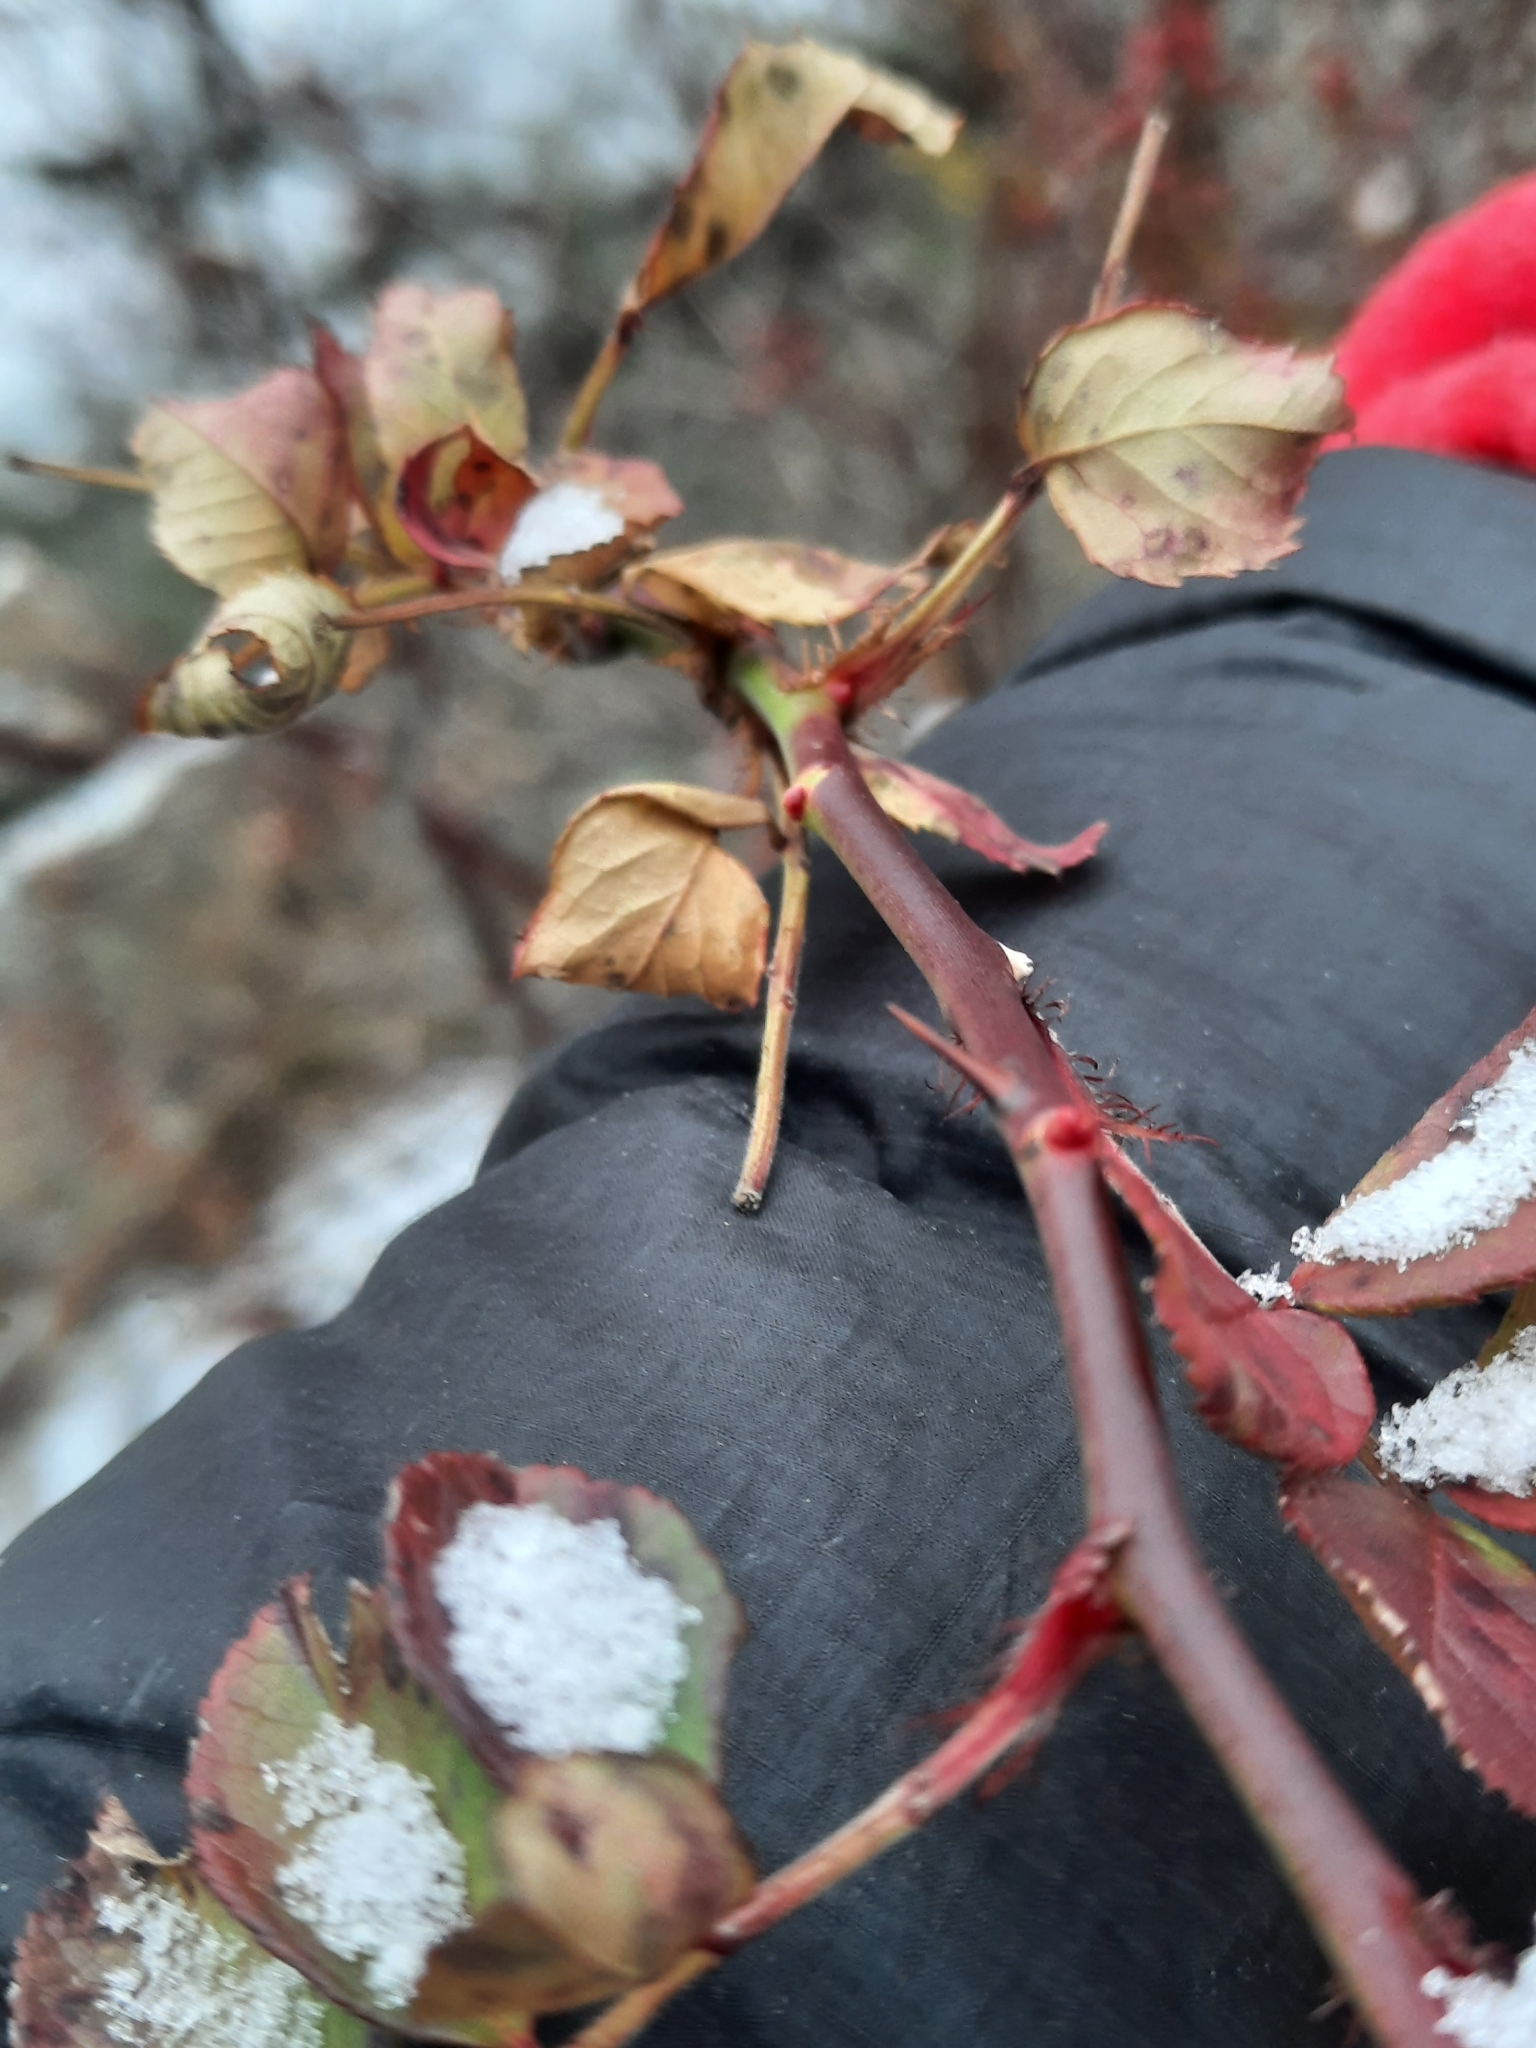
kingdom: Plantae
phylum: Tracheophyta
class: Magnoliopsida
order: Rosales
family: Rosaceae
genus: Rosa
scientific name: Rosa multiflora
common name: Multiflora rose
